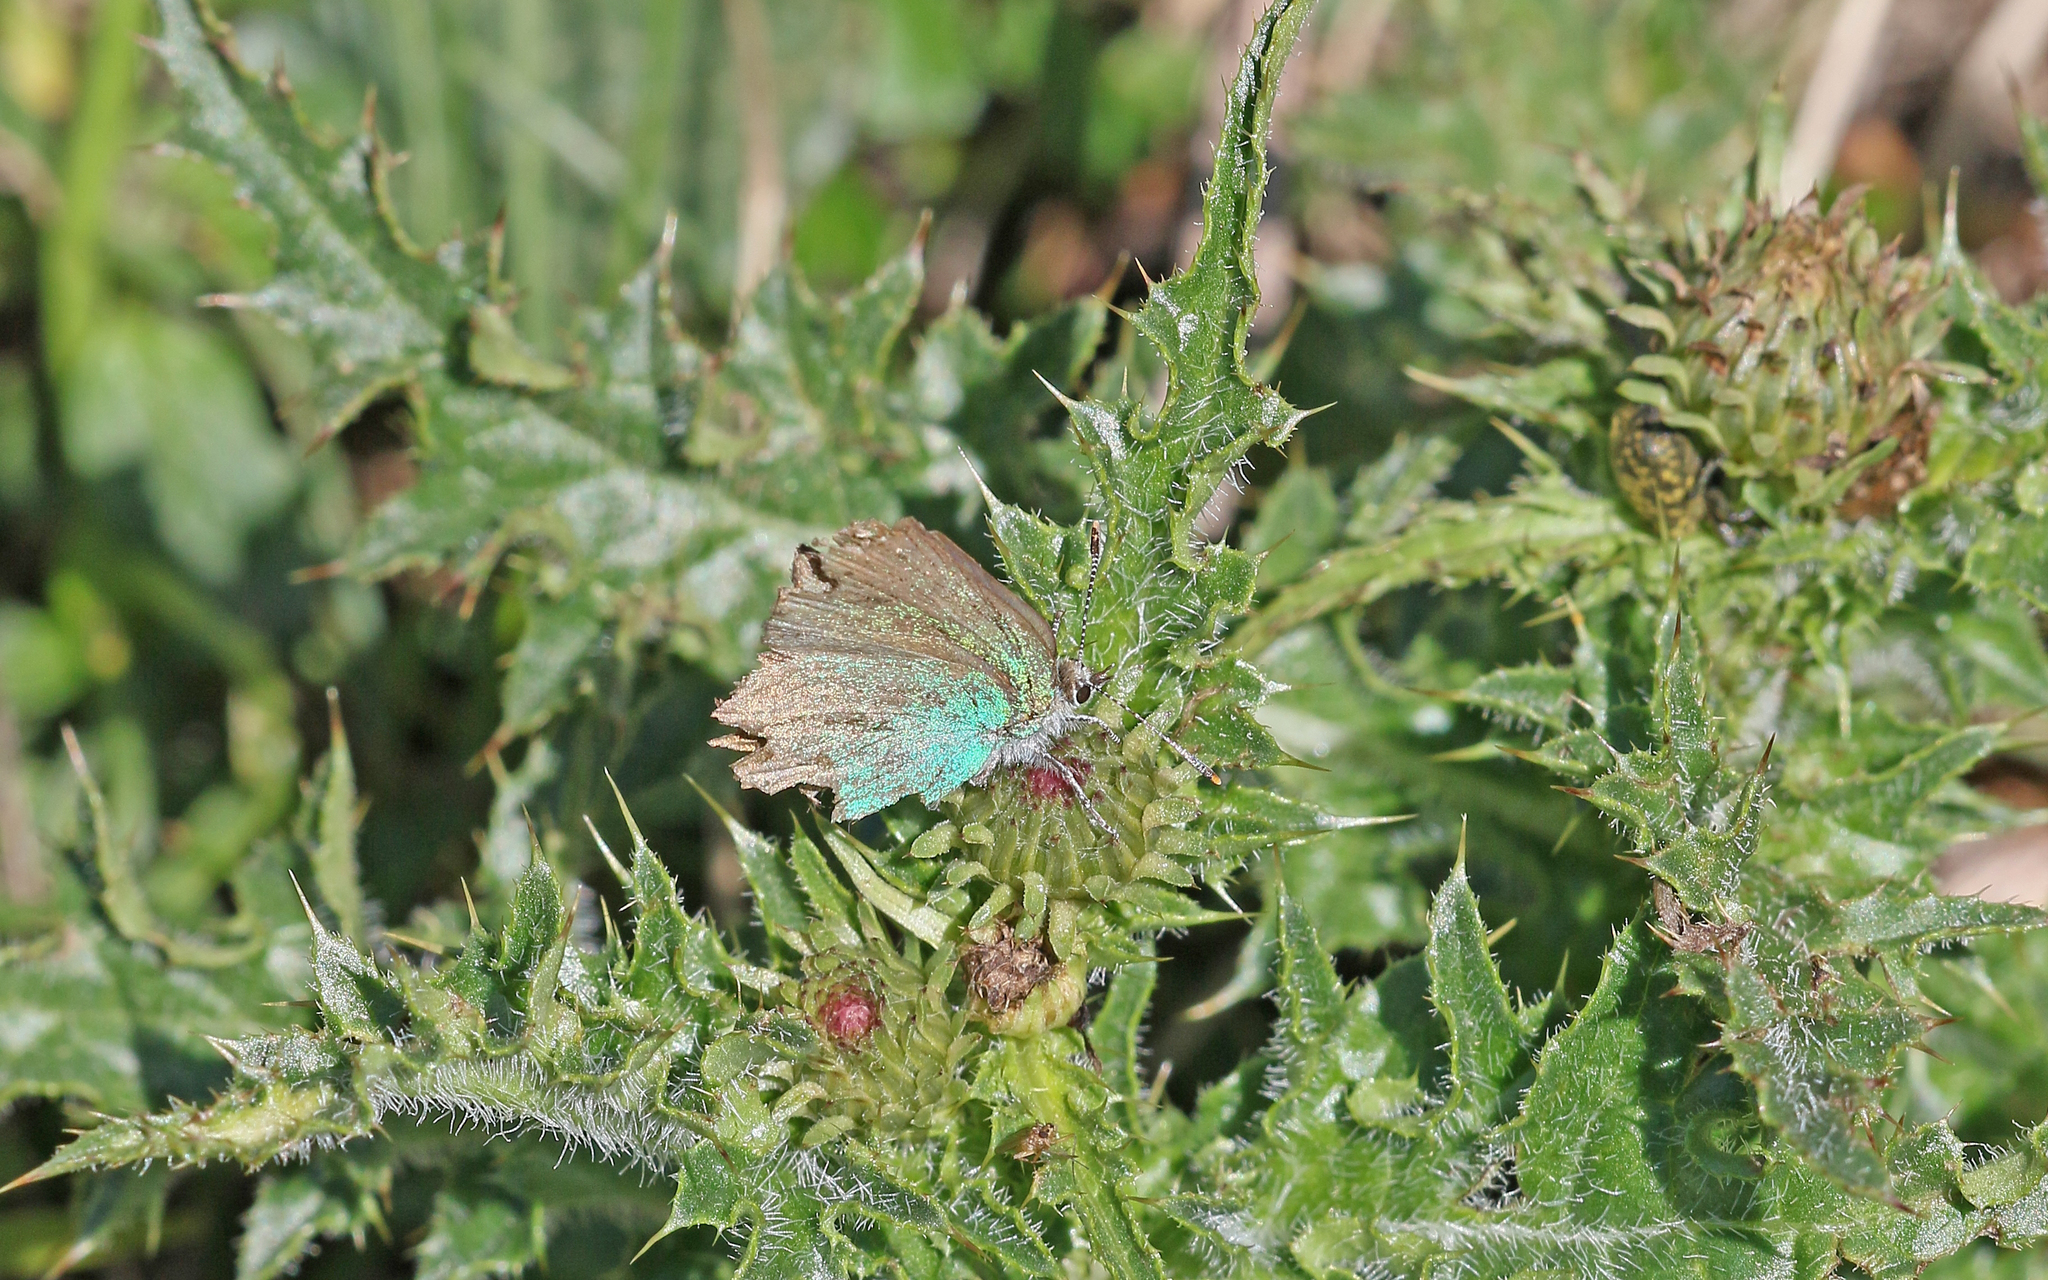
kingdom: Animalia
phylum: Arthropoda
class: Insecta
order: Lepidoptera
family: Lycaenidae
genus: Callophrys
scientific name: Callophrys rubi
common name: Green hairstreak
